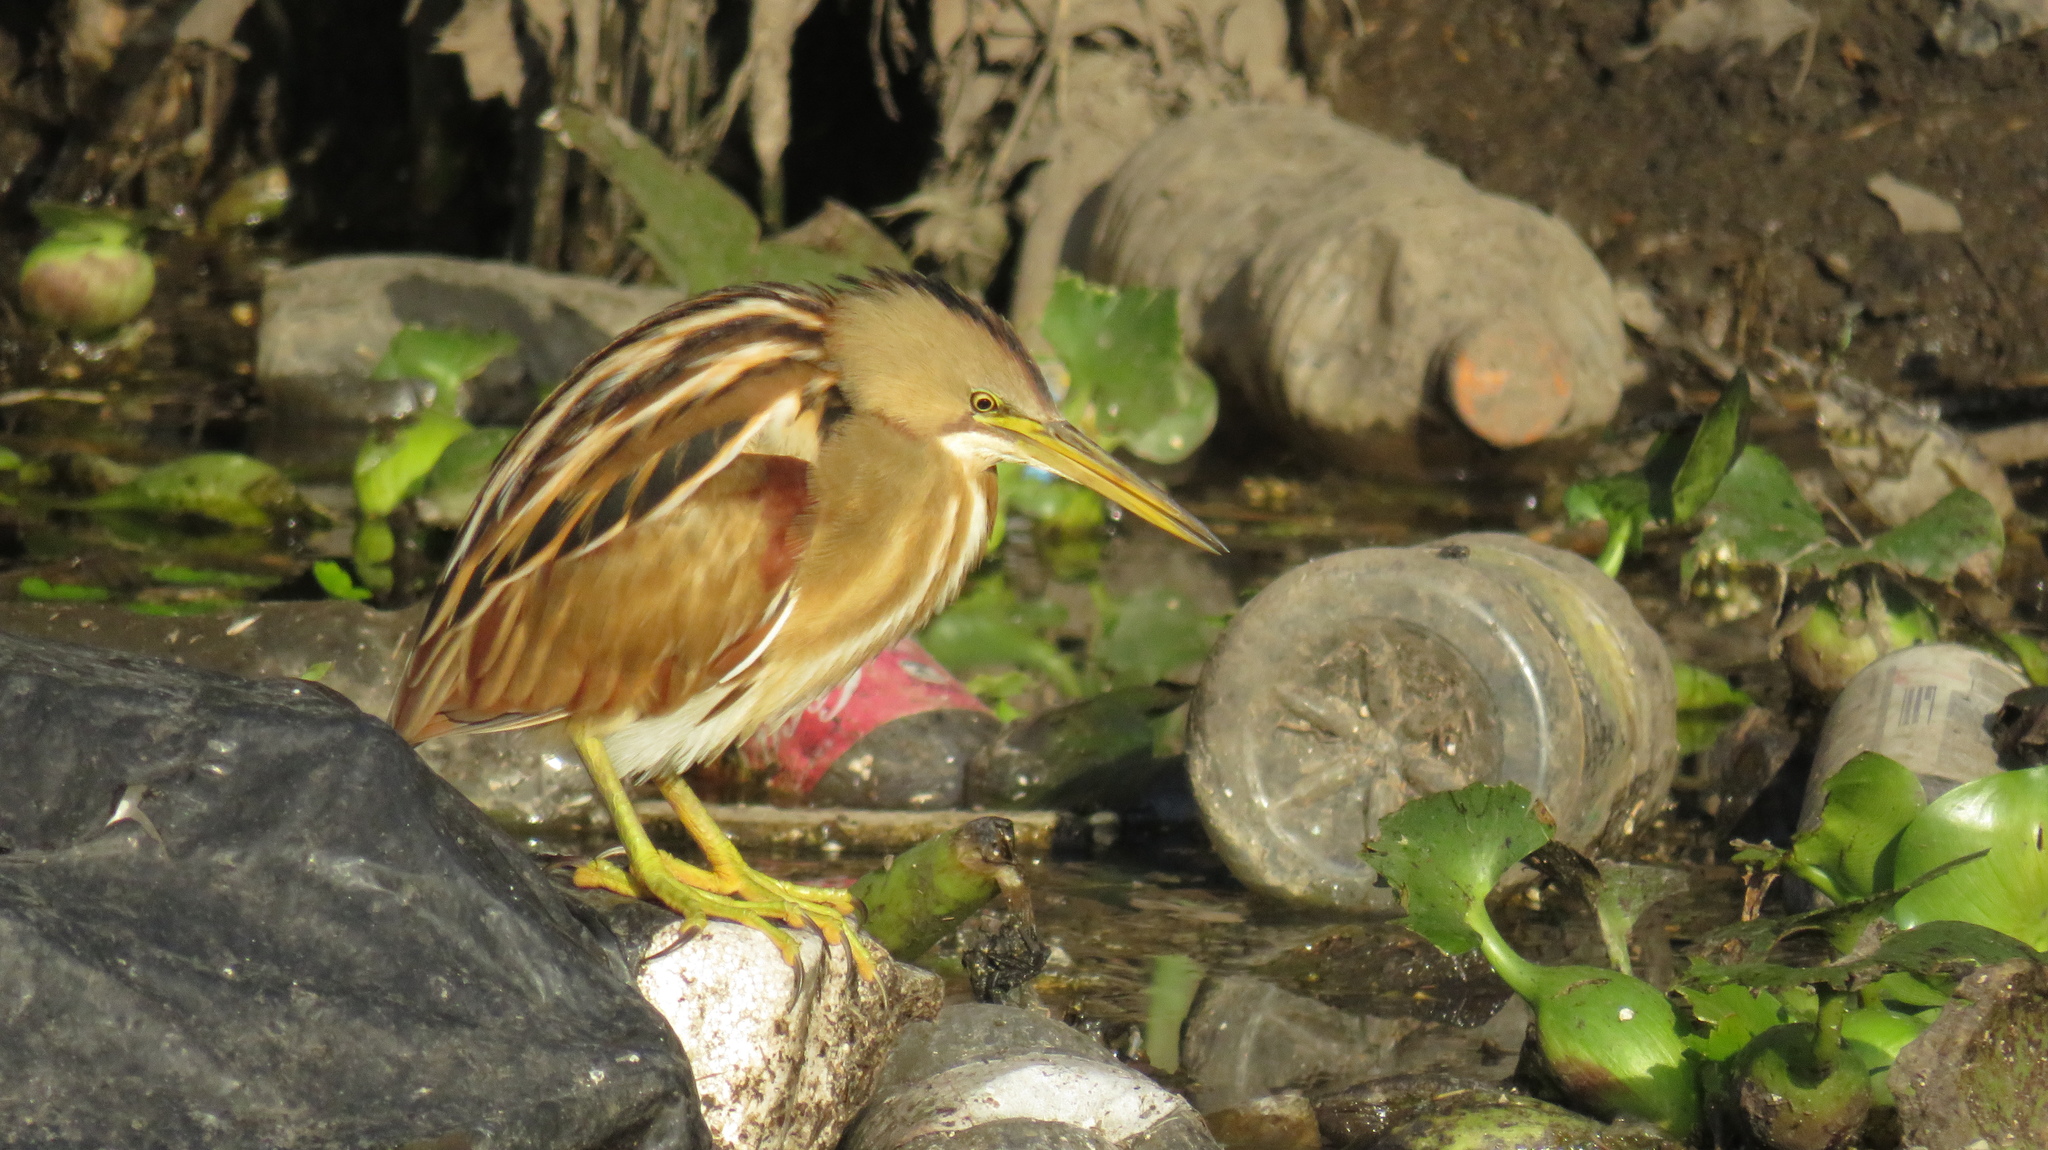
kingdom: Animalia
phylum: Chordata
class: Aves
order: Pelecaniformes
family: Ardeidae
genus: Ixobrychus
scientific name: Ixobrychus involucris
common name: Stripe-backed bittern
